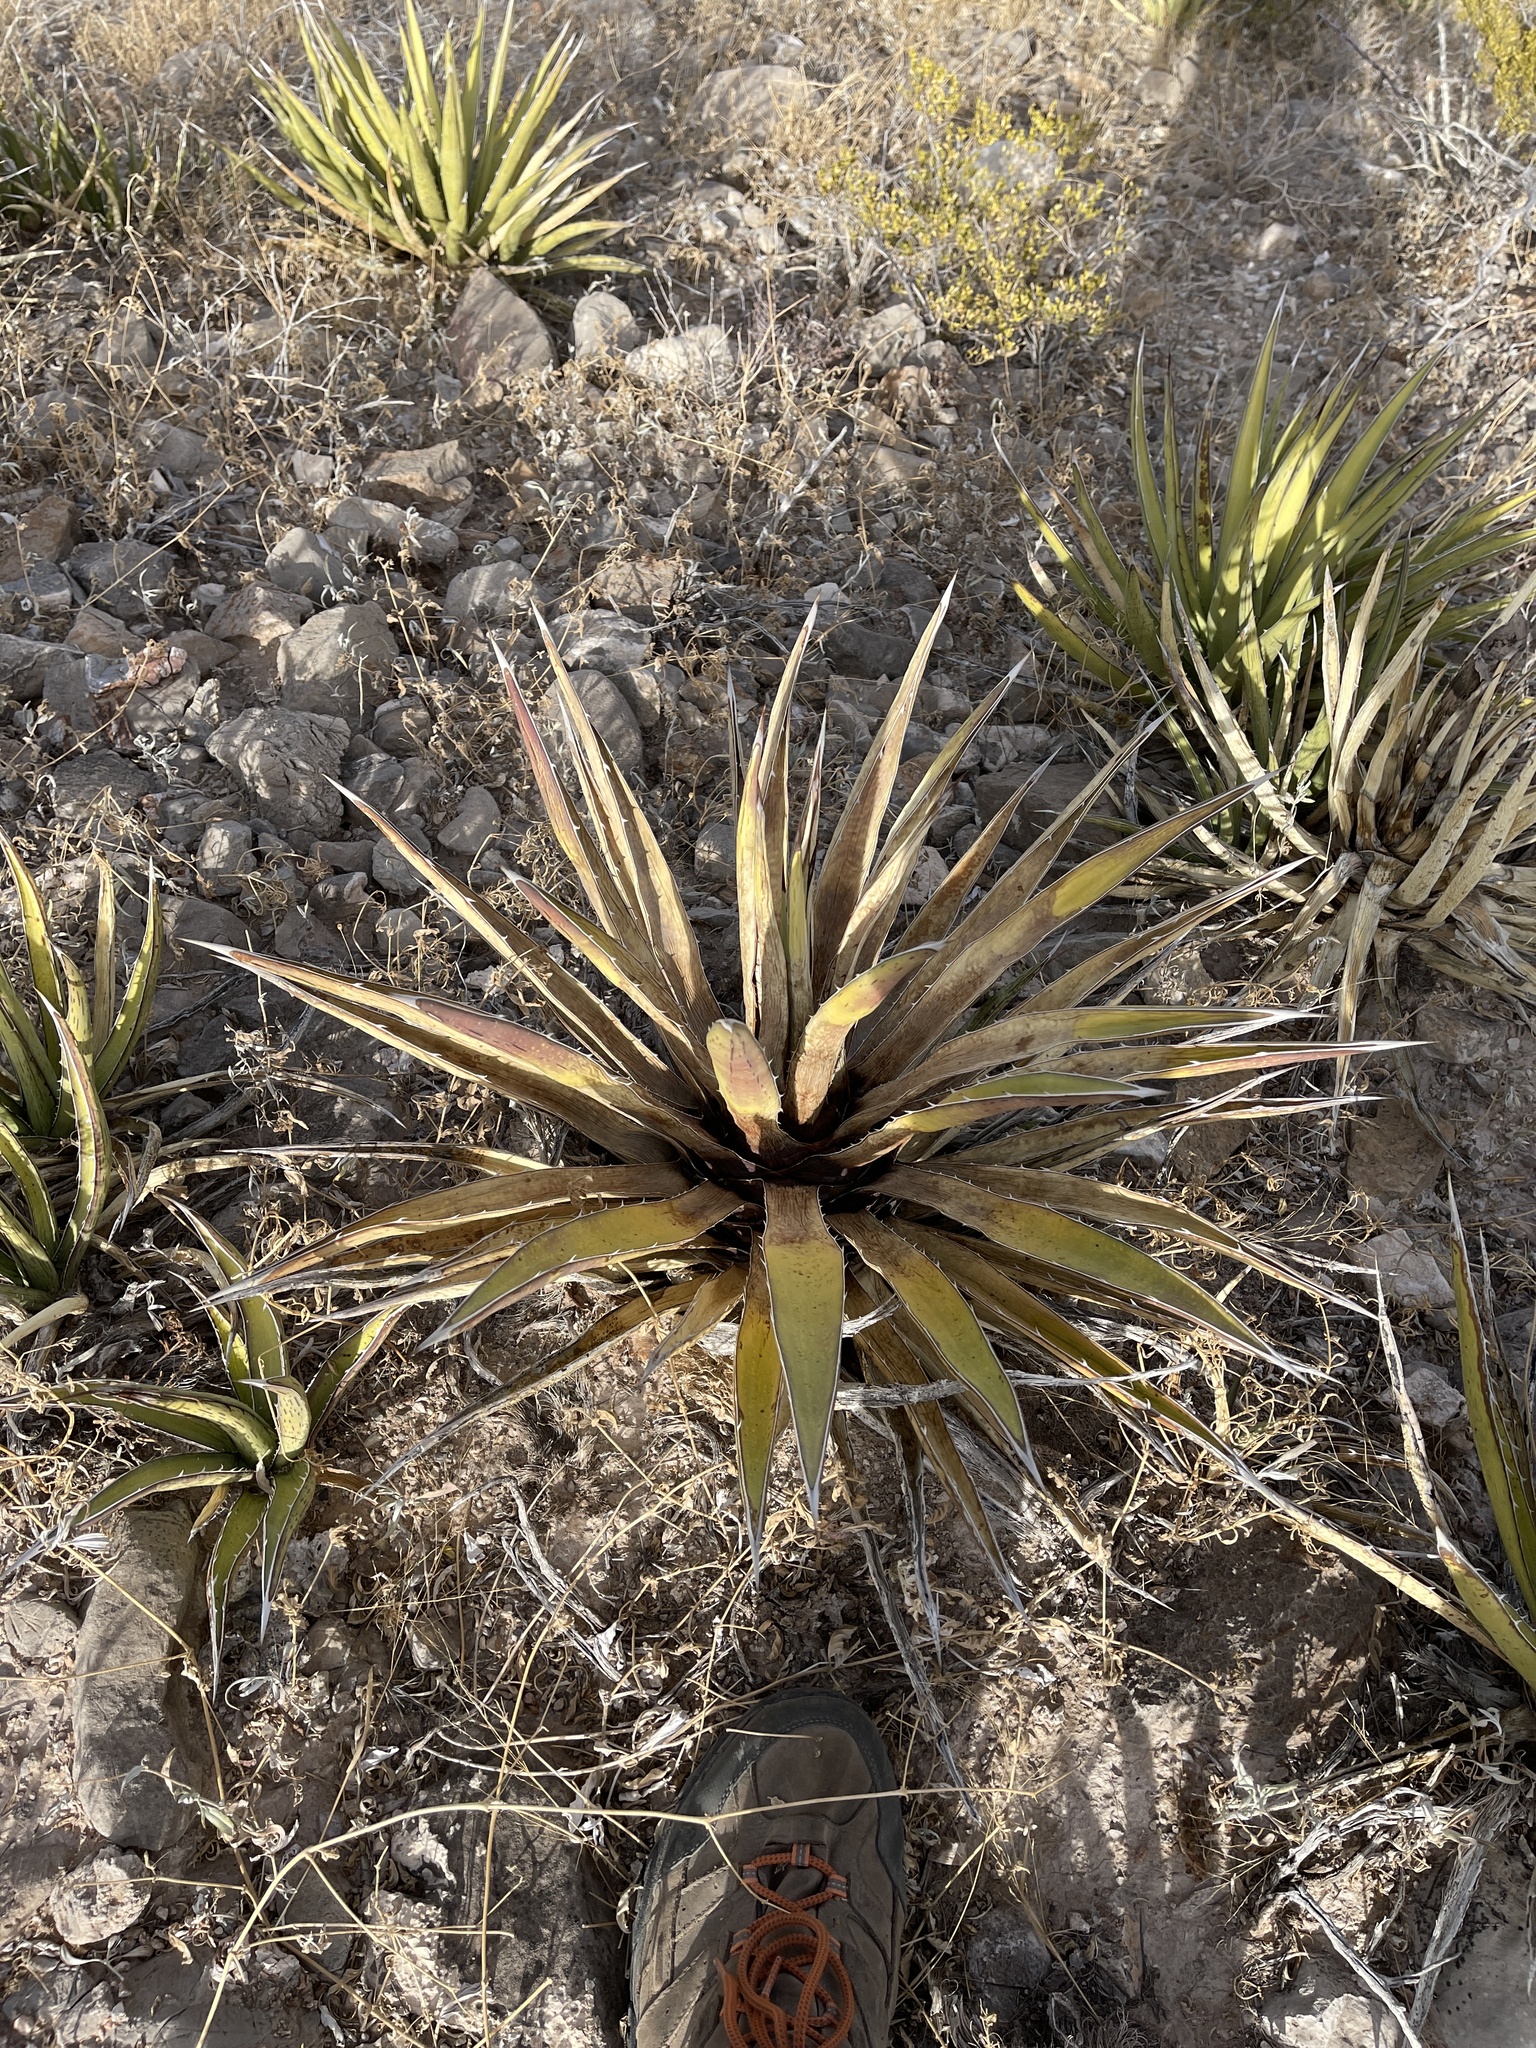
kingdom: Plantae
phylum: Tracheophyta
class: Liliopsida
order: Asparagales
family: Asparagaceae
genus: Agave
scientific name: Agave lechuguilla
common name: Lecheguilla agave
